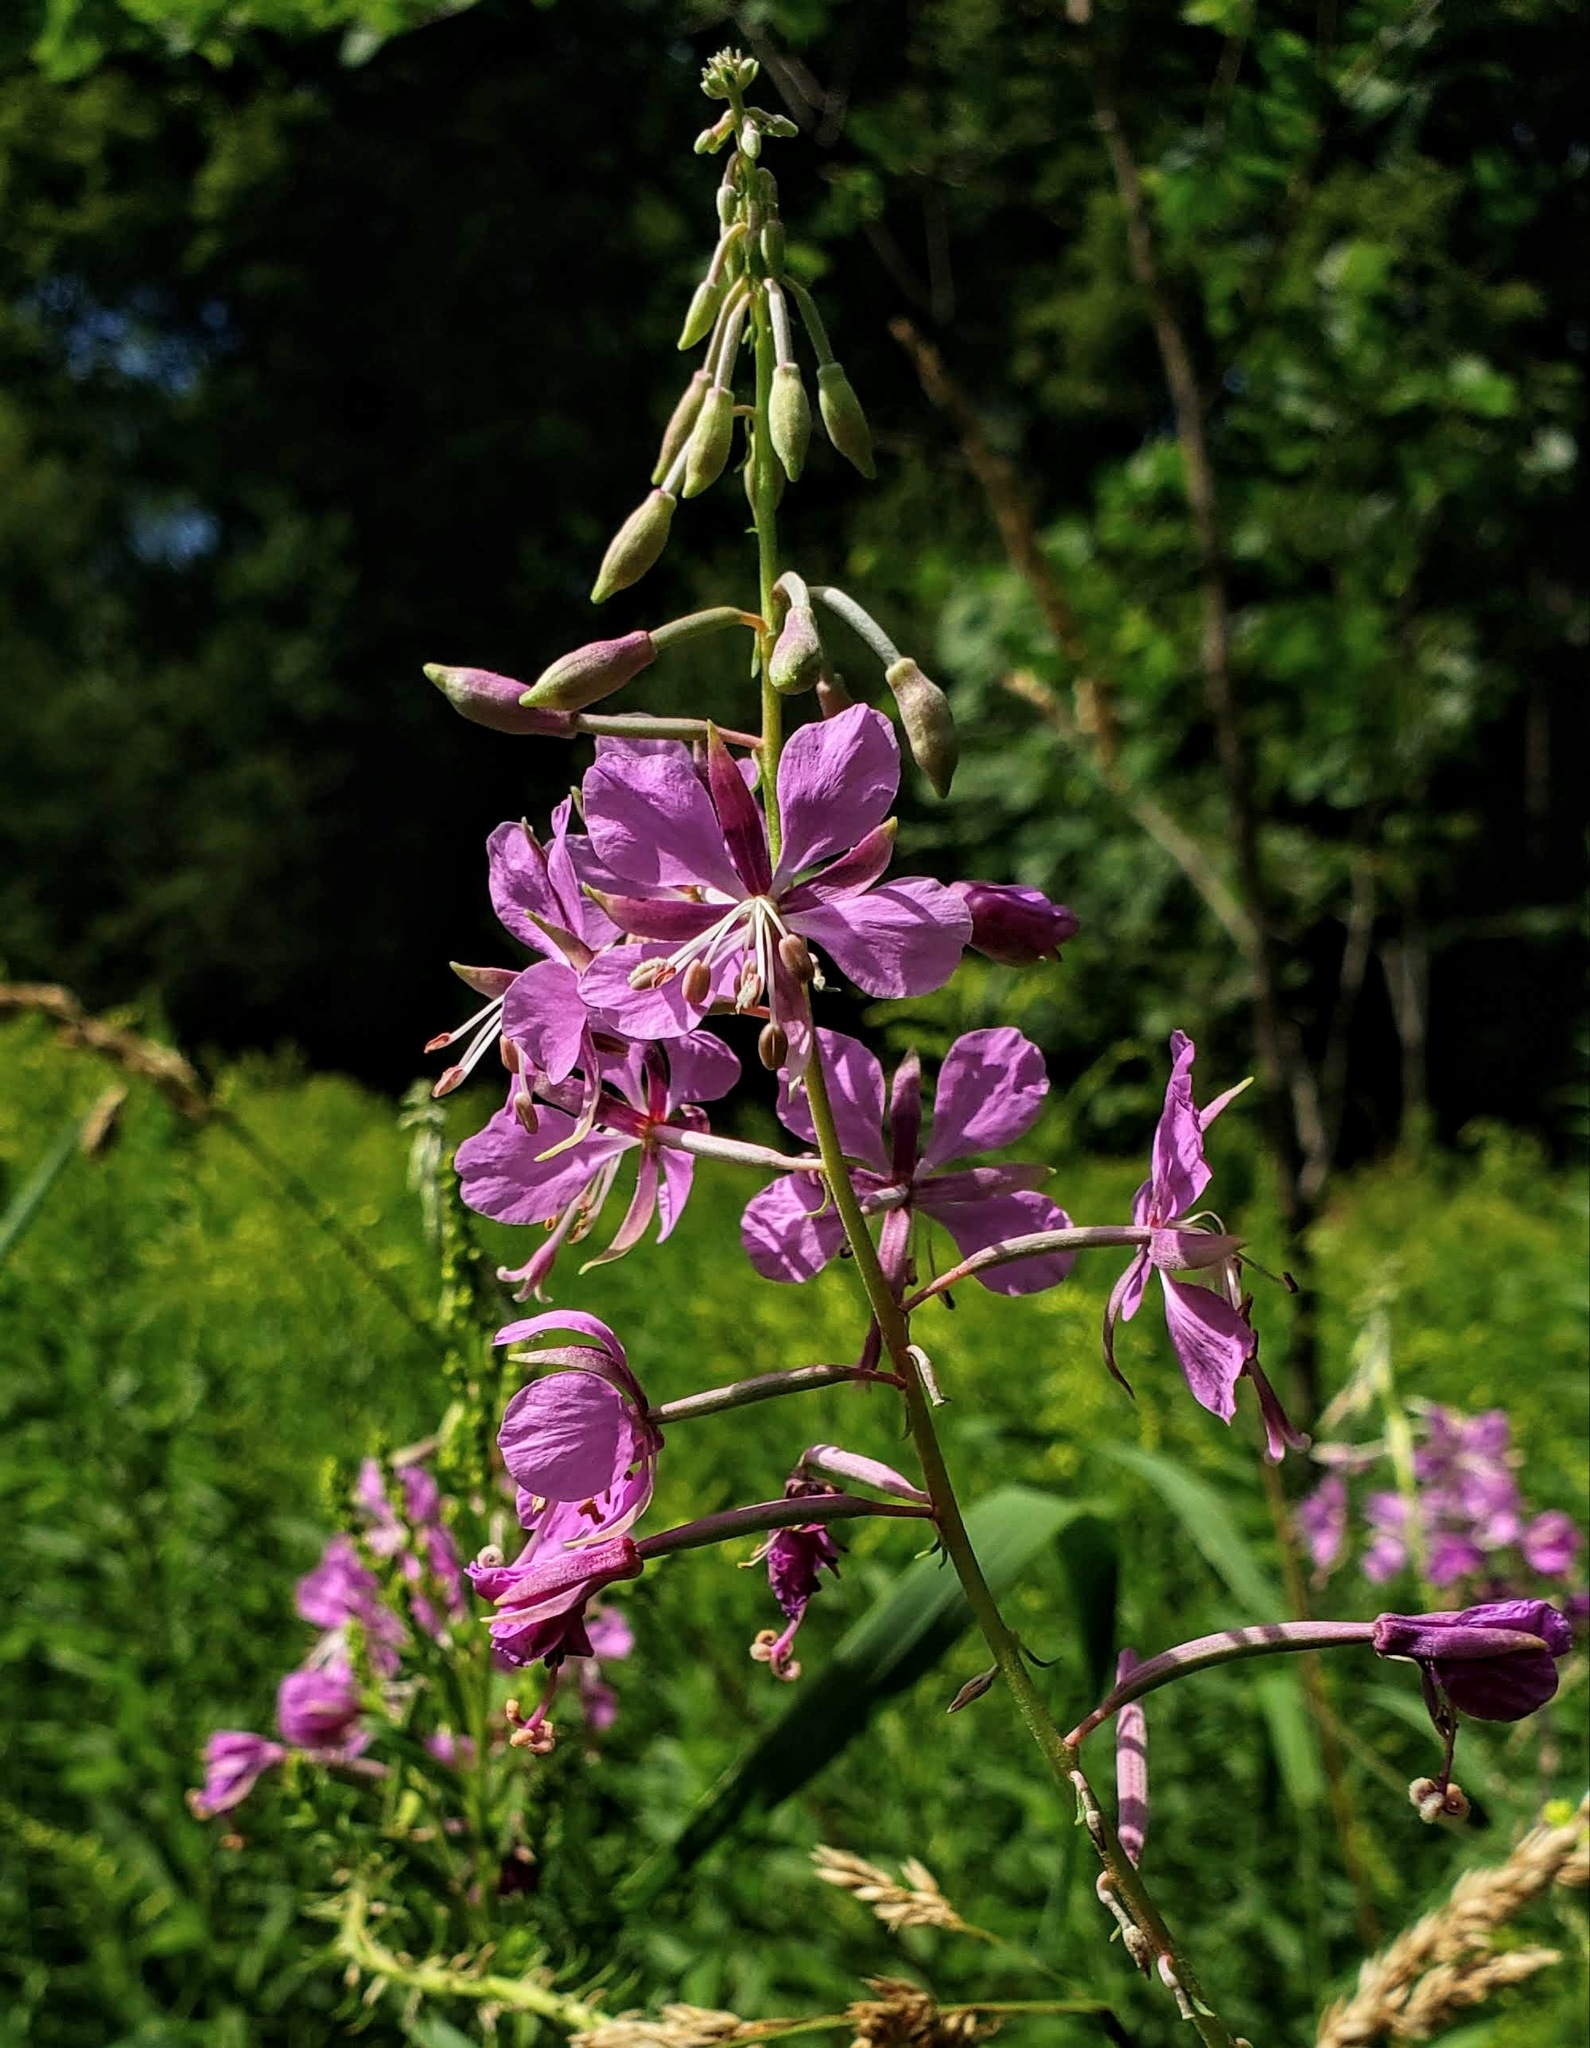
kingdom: Plantae
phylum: Tracheophyta
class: Magnoliopsida
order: Myrtales
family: Onagraceae
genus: Chamaenerion
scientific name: Chamaenerion angustifolium
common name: Fireweed
